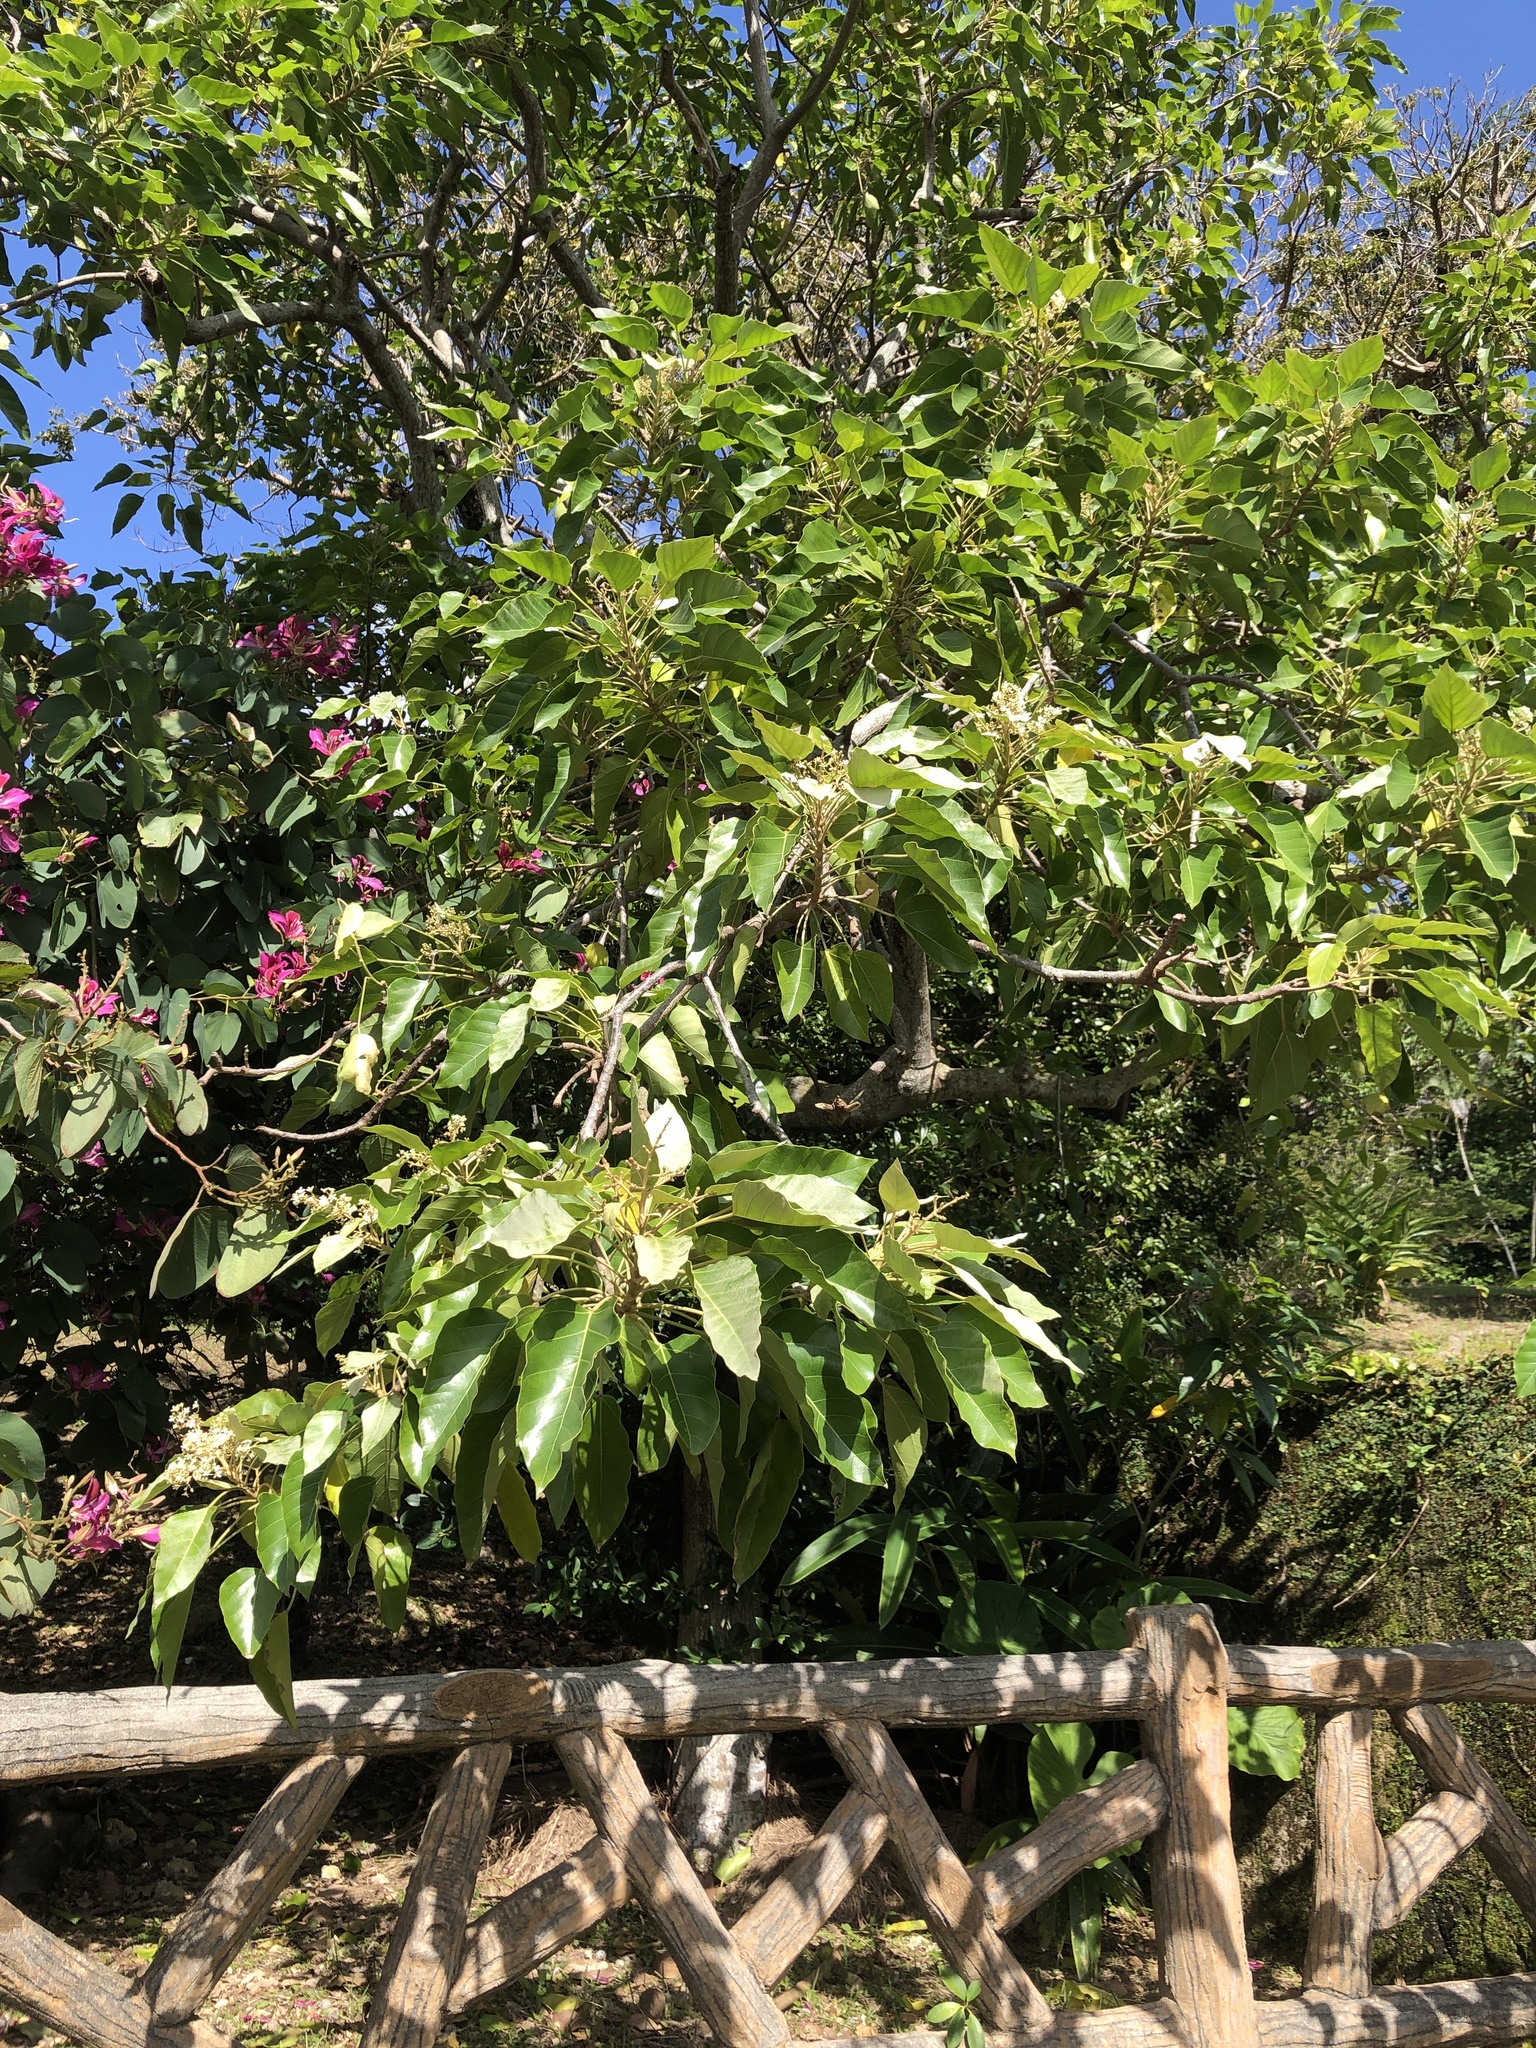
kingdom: Plantae
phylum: Tracheophyta
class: Magnoliopsida
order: Malpighiales
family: Euphorbiaceae
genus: Aleurites
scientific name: Aleurites moluccanus
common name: Candlenut tree
